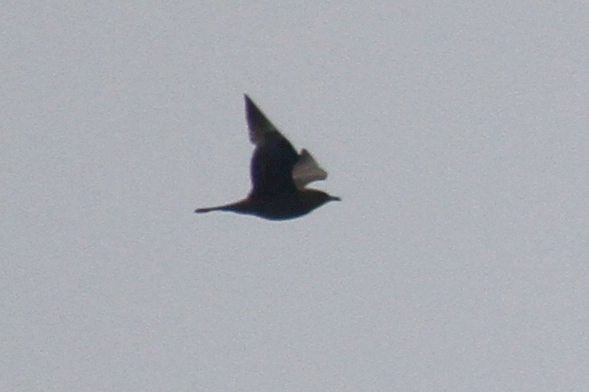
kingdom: Animalia
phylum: Chordata
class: Aves
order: Charadriiformes
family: Stercorariidae
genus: Stercorarius
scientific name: Stercorarius pomarinus
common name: Pomarine jaeger
